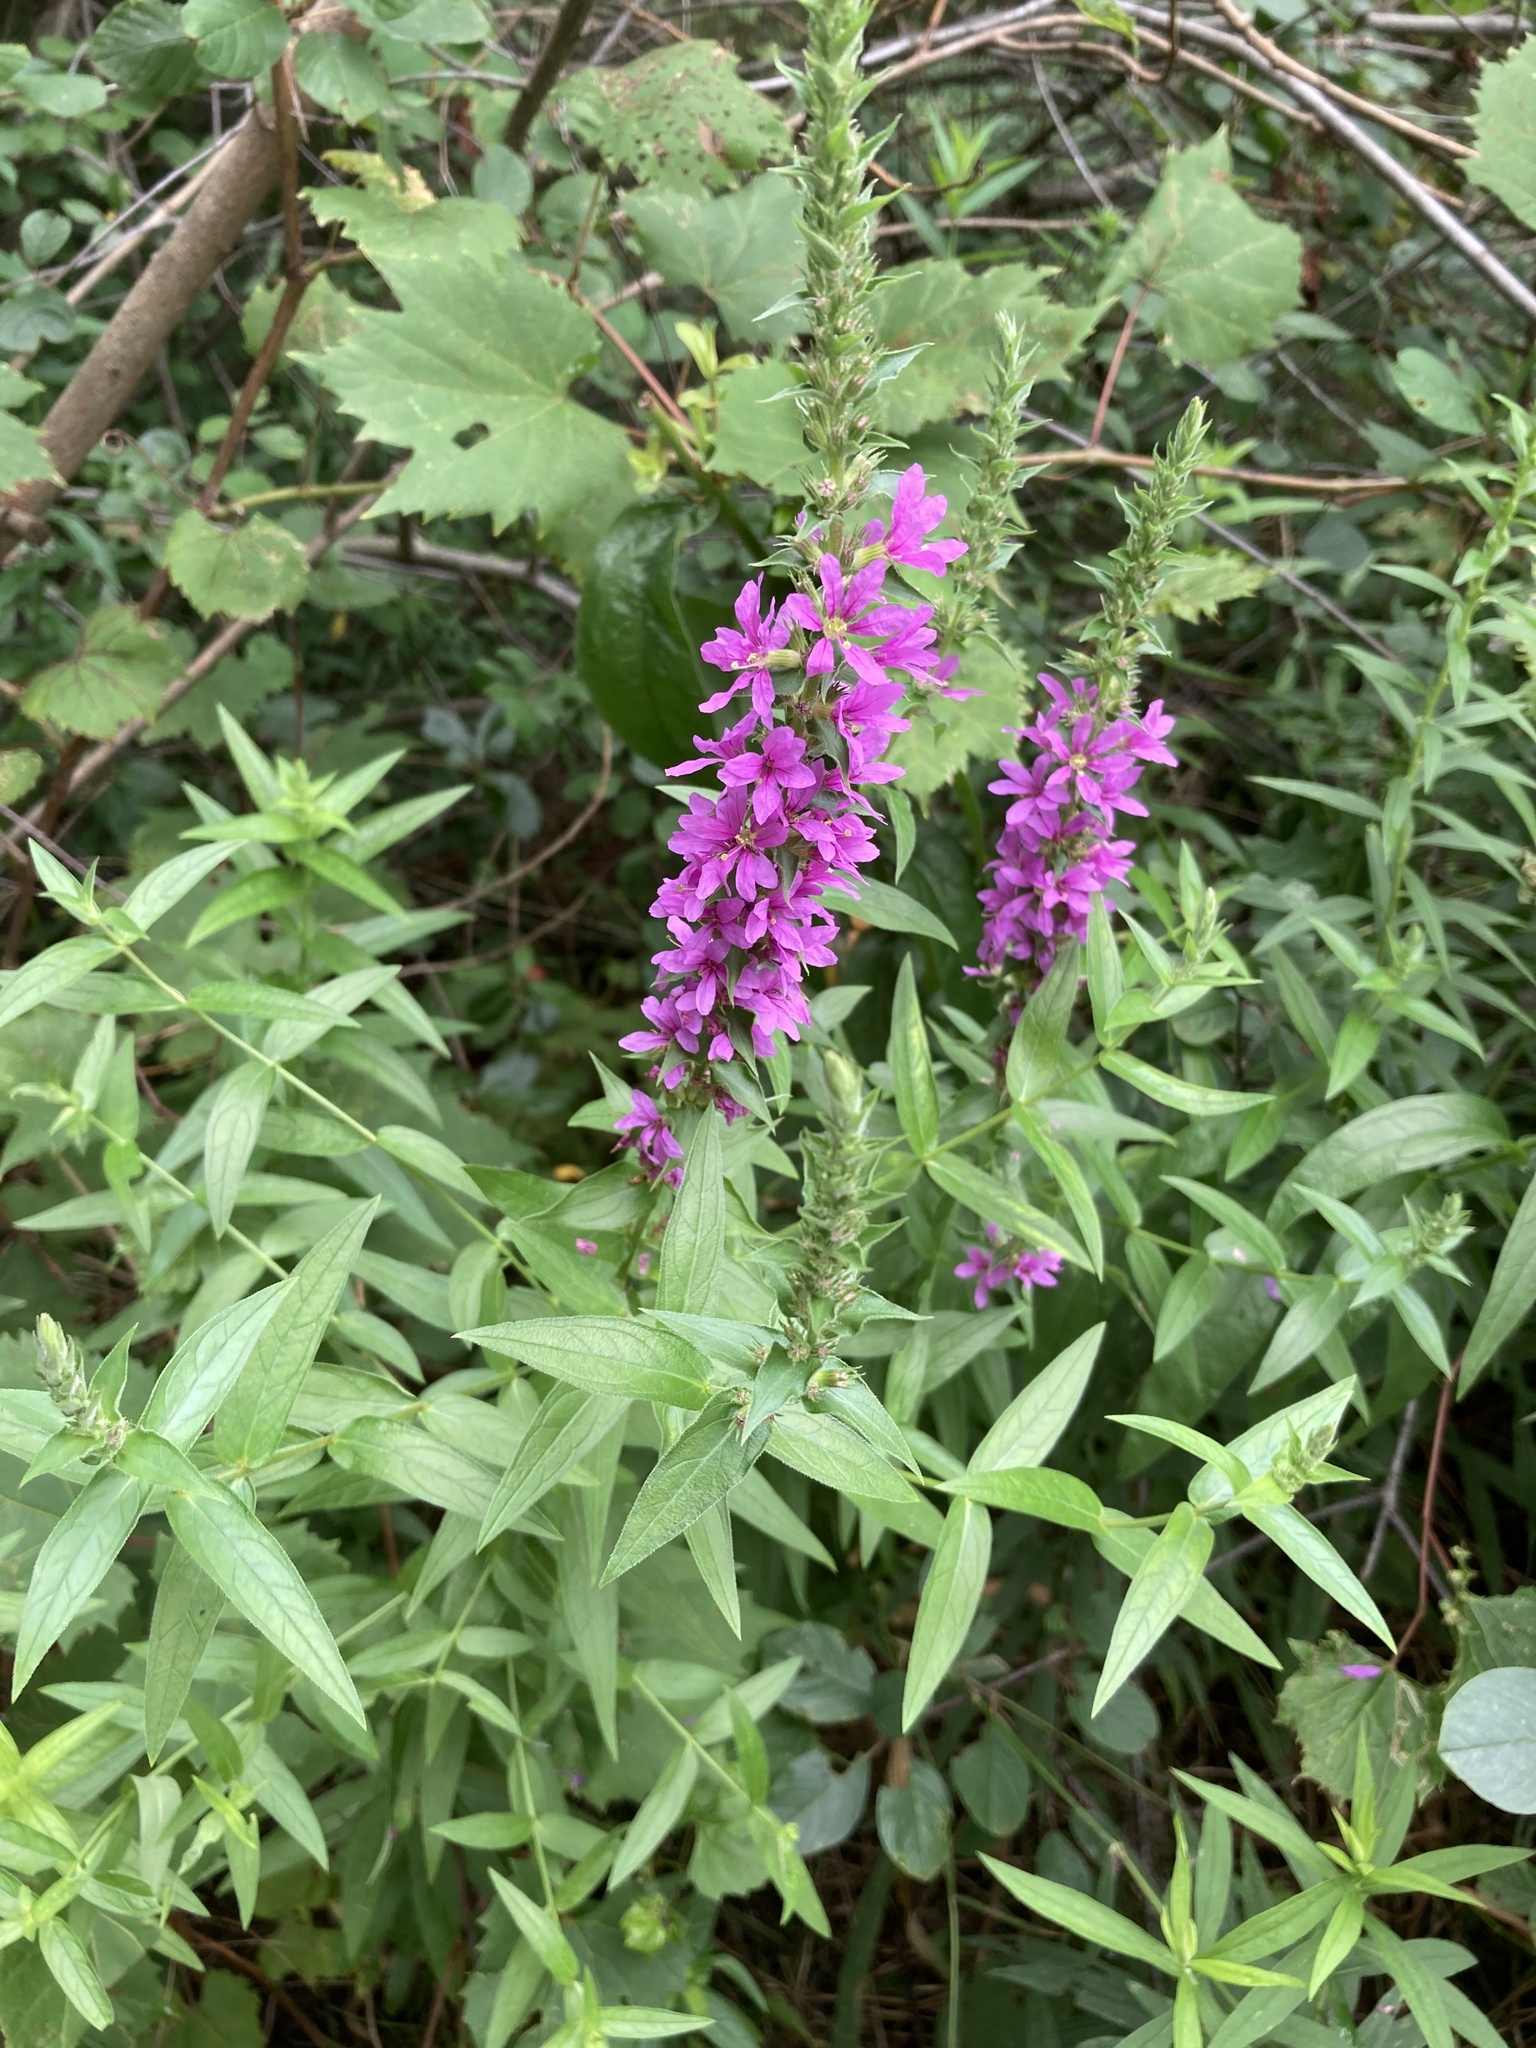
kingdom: Plantae
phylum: Tracheophyta
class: Magnoliopsida
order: Myrtales
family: Lythraceae
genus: Lythrum
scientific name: Lythrum salicaria
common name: Purple loosestrife
